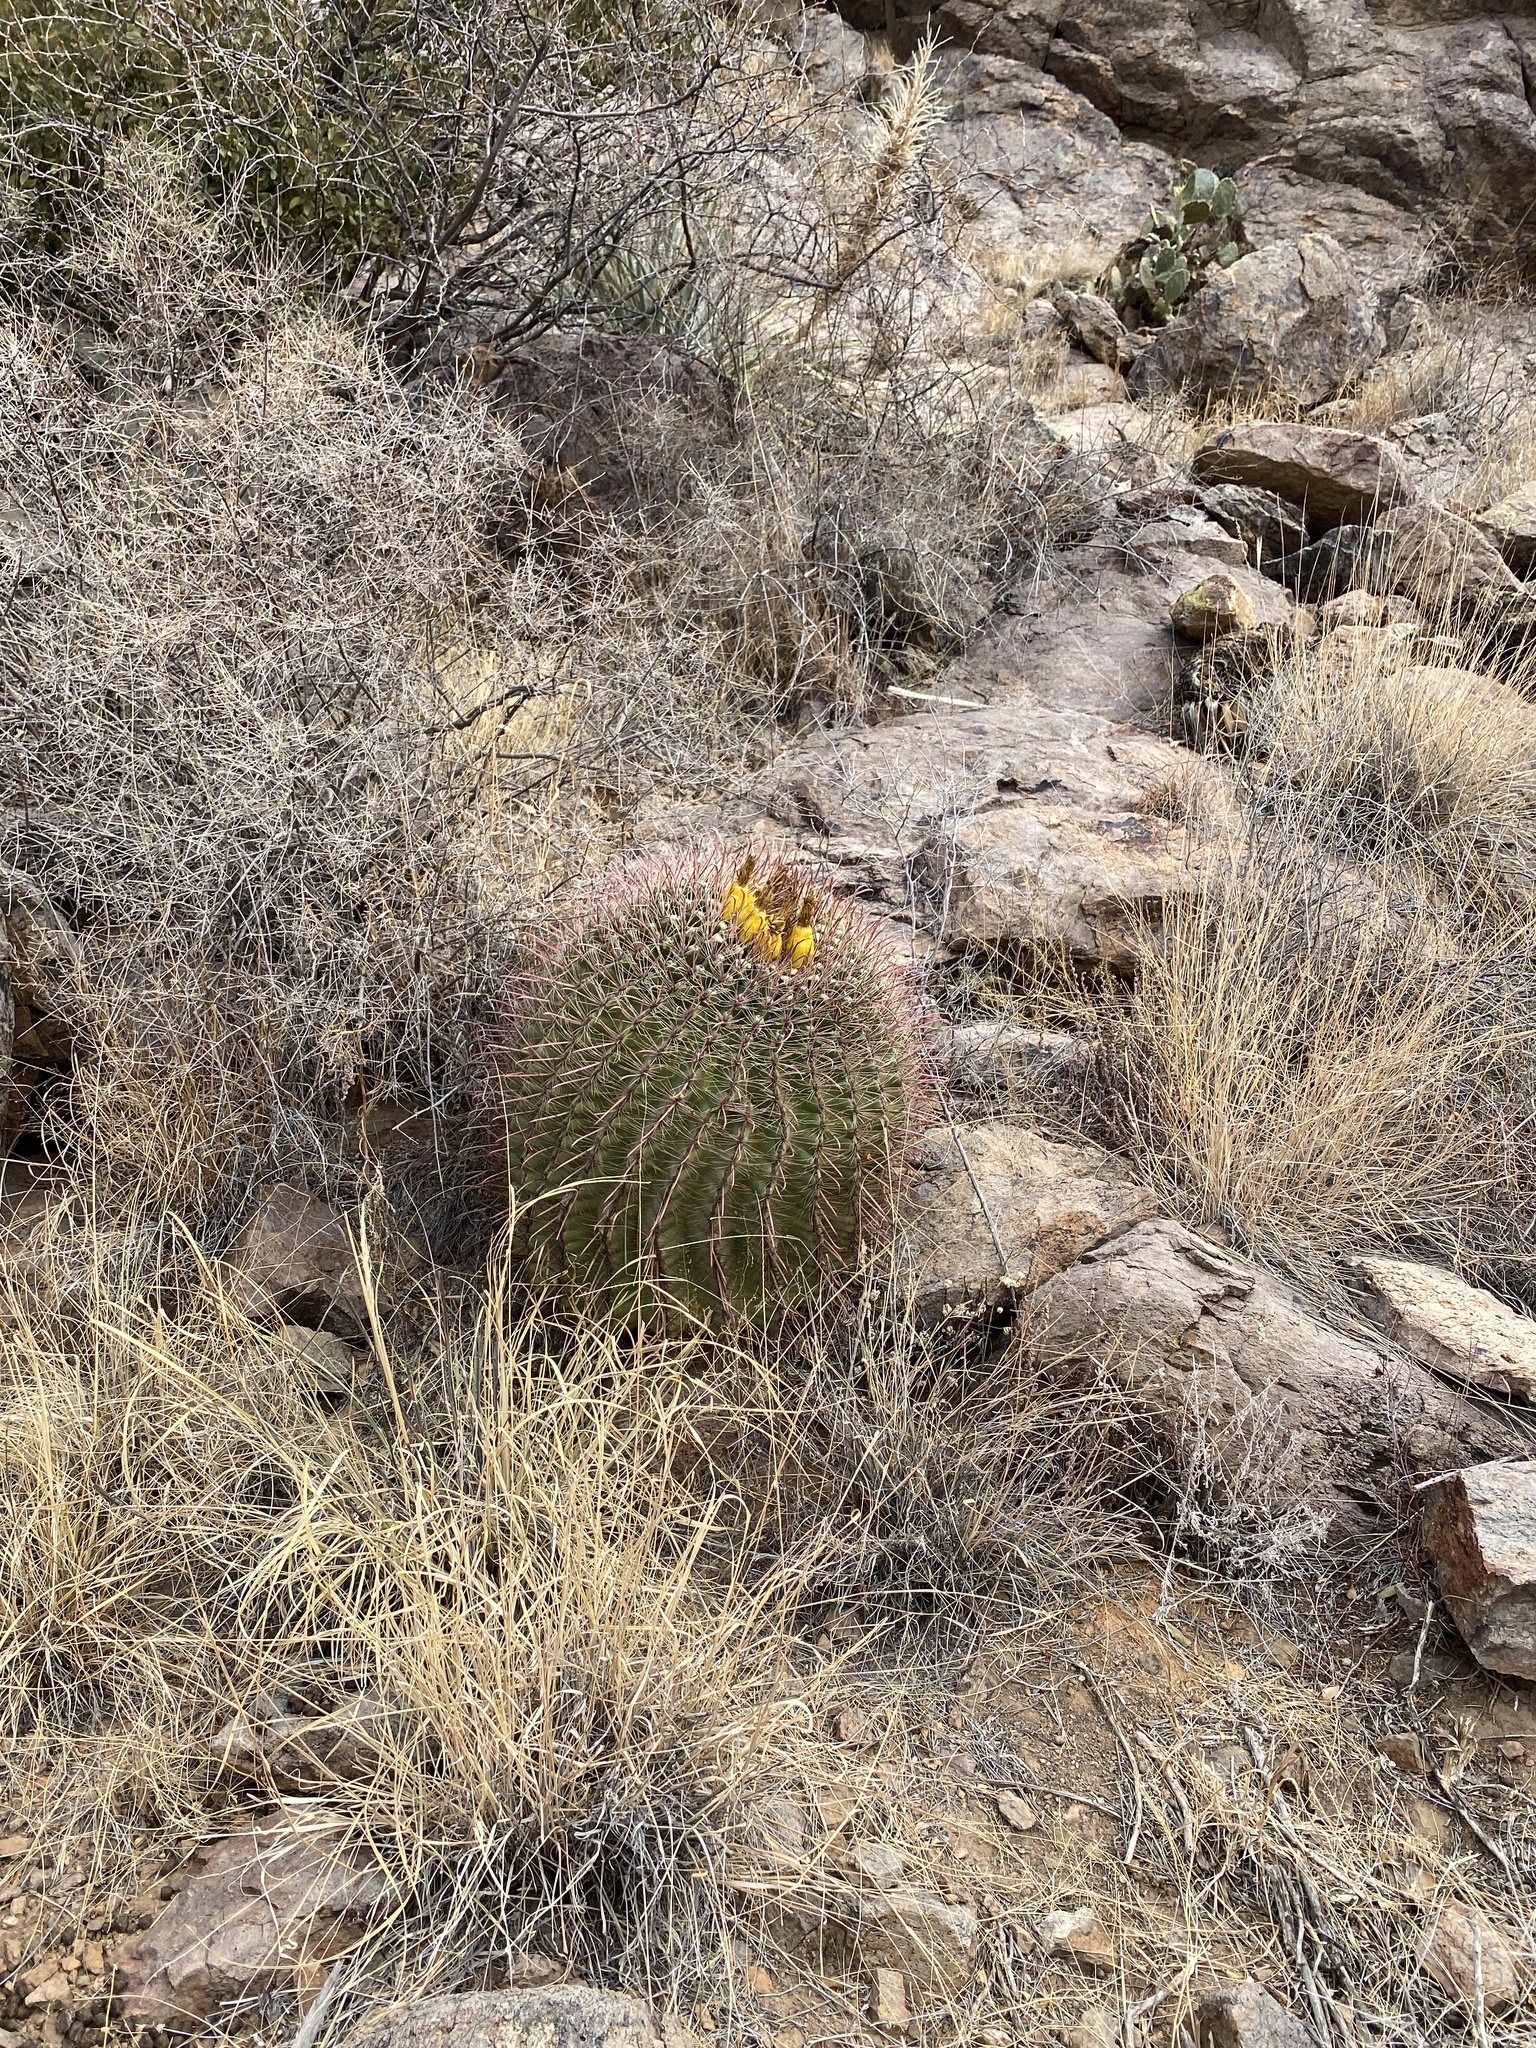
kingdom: Plantae
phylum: Tracheophyta
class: Magnoliopsida
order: Caryophyllales
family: Cactaceae
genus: Ferocactus
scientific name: Ferocactus wislizeni
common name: Candy barrel cactus
